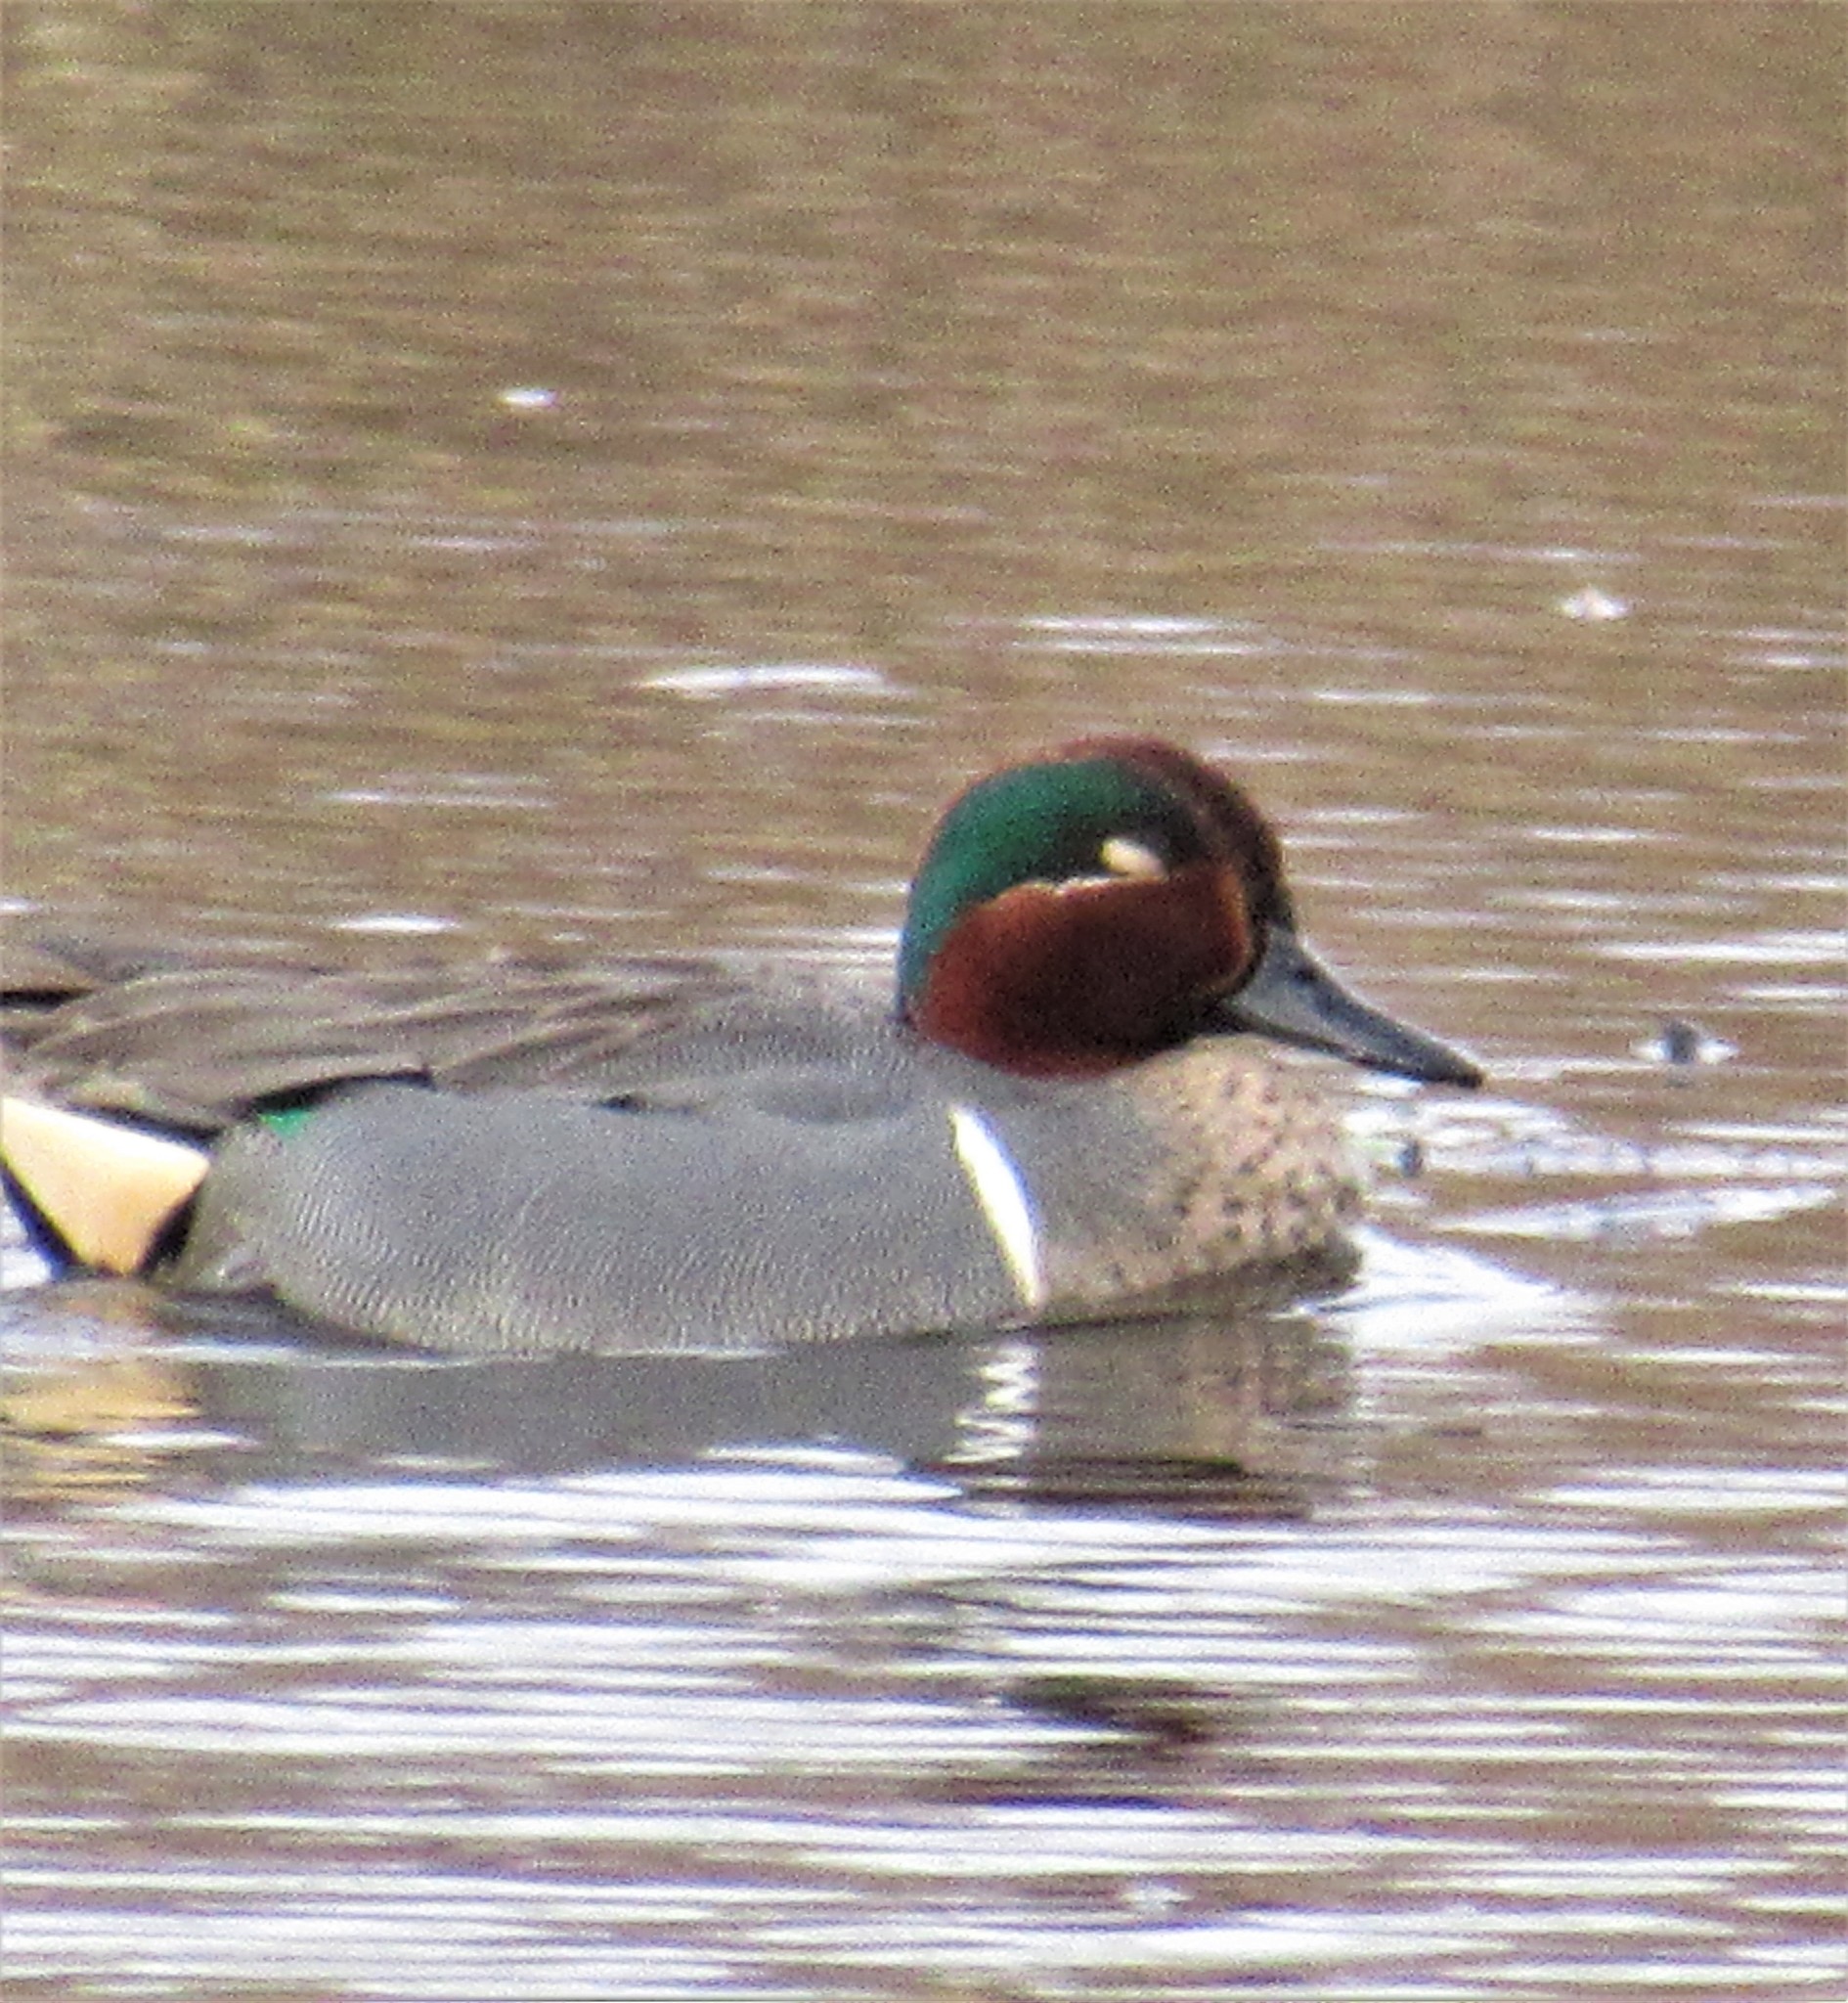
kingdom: Animalia
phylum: Chordata
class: Aves
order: Anseriformes
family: Anatidae
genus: Anas
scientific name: Anas crecca
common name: Eurasian teal
